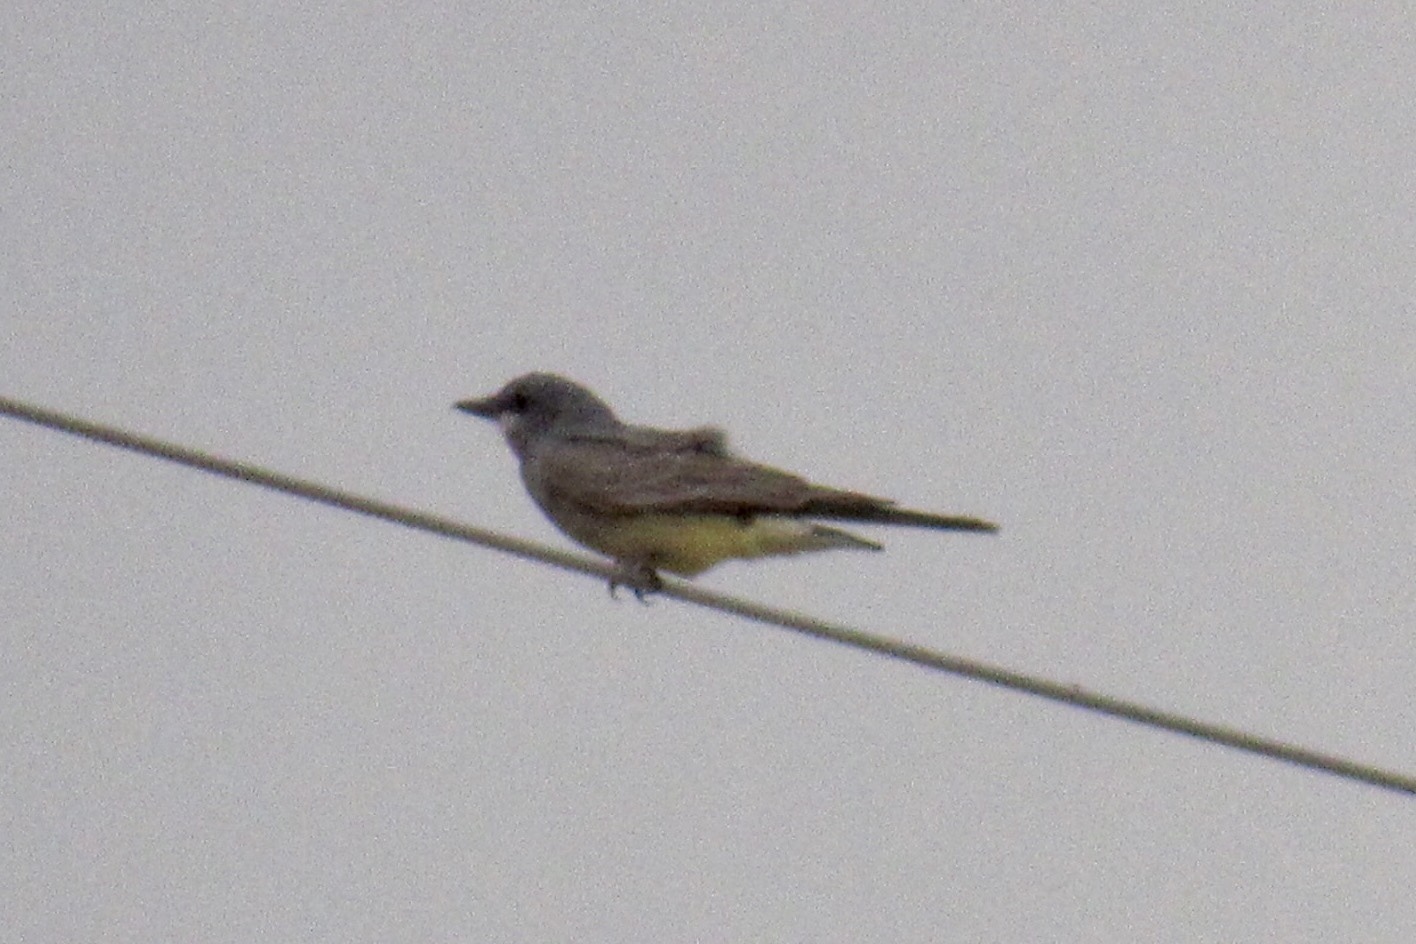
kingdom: Animalia
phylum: Chordata
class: Aves
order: Passeriformes
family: Tyrannidae
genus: Tyrannus
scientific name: Tyrannus vociferans
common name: Cassin's kingbird
